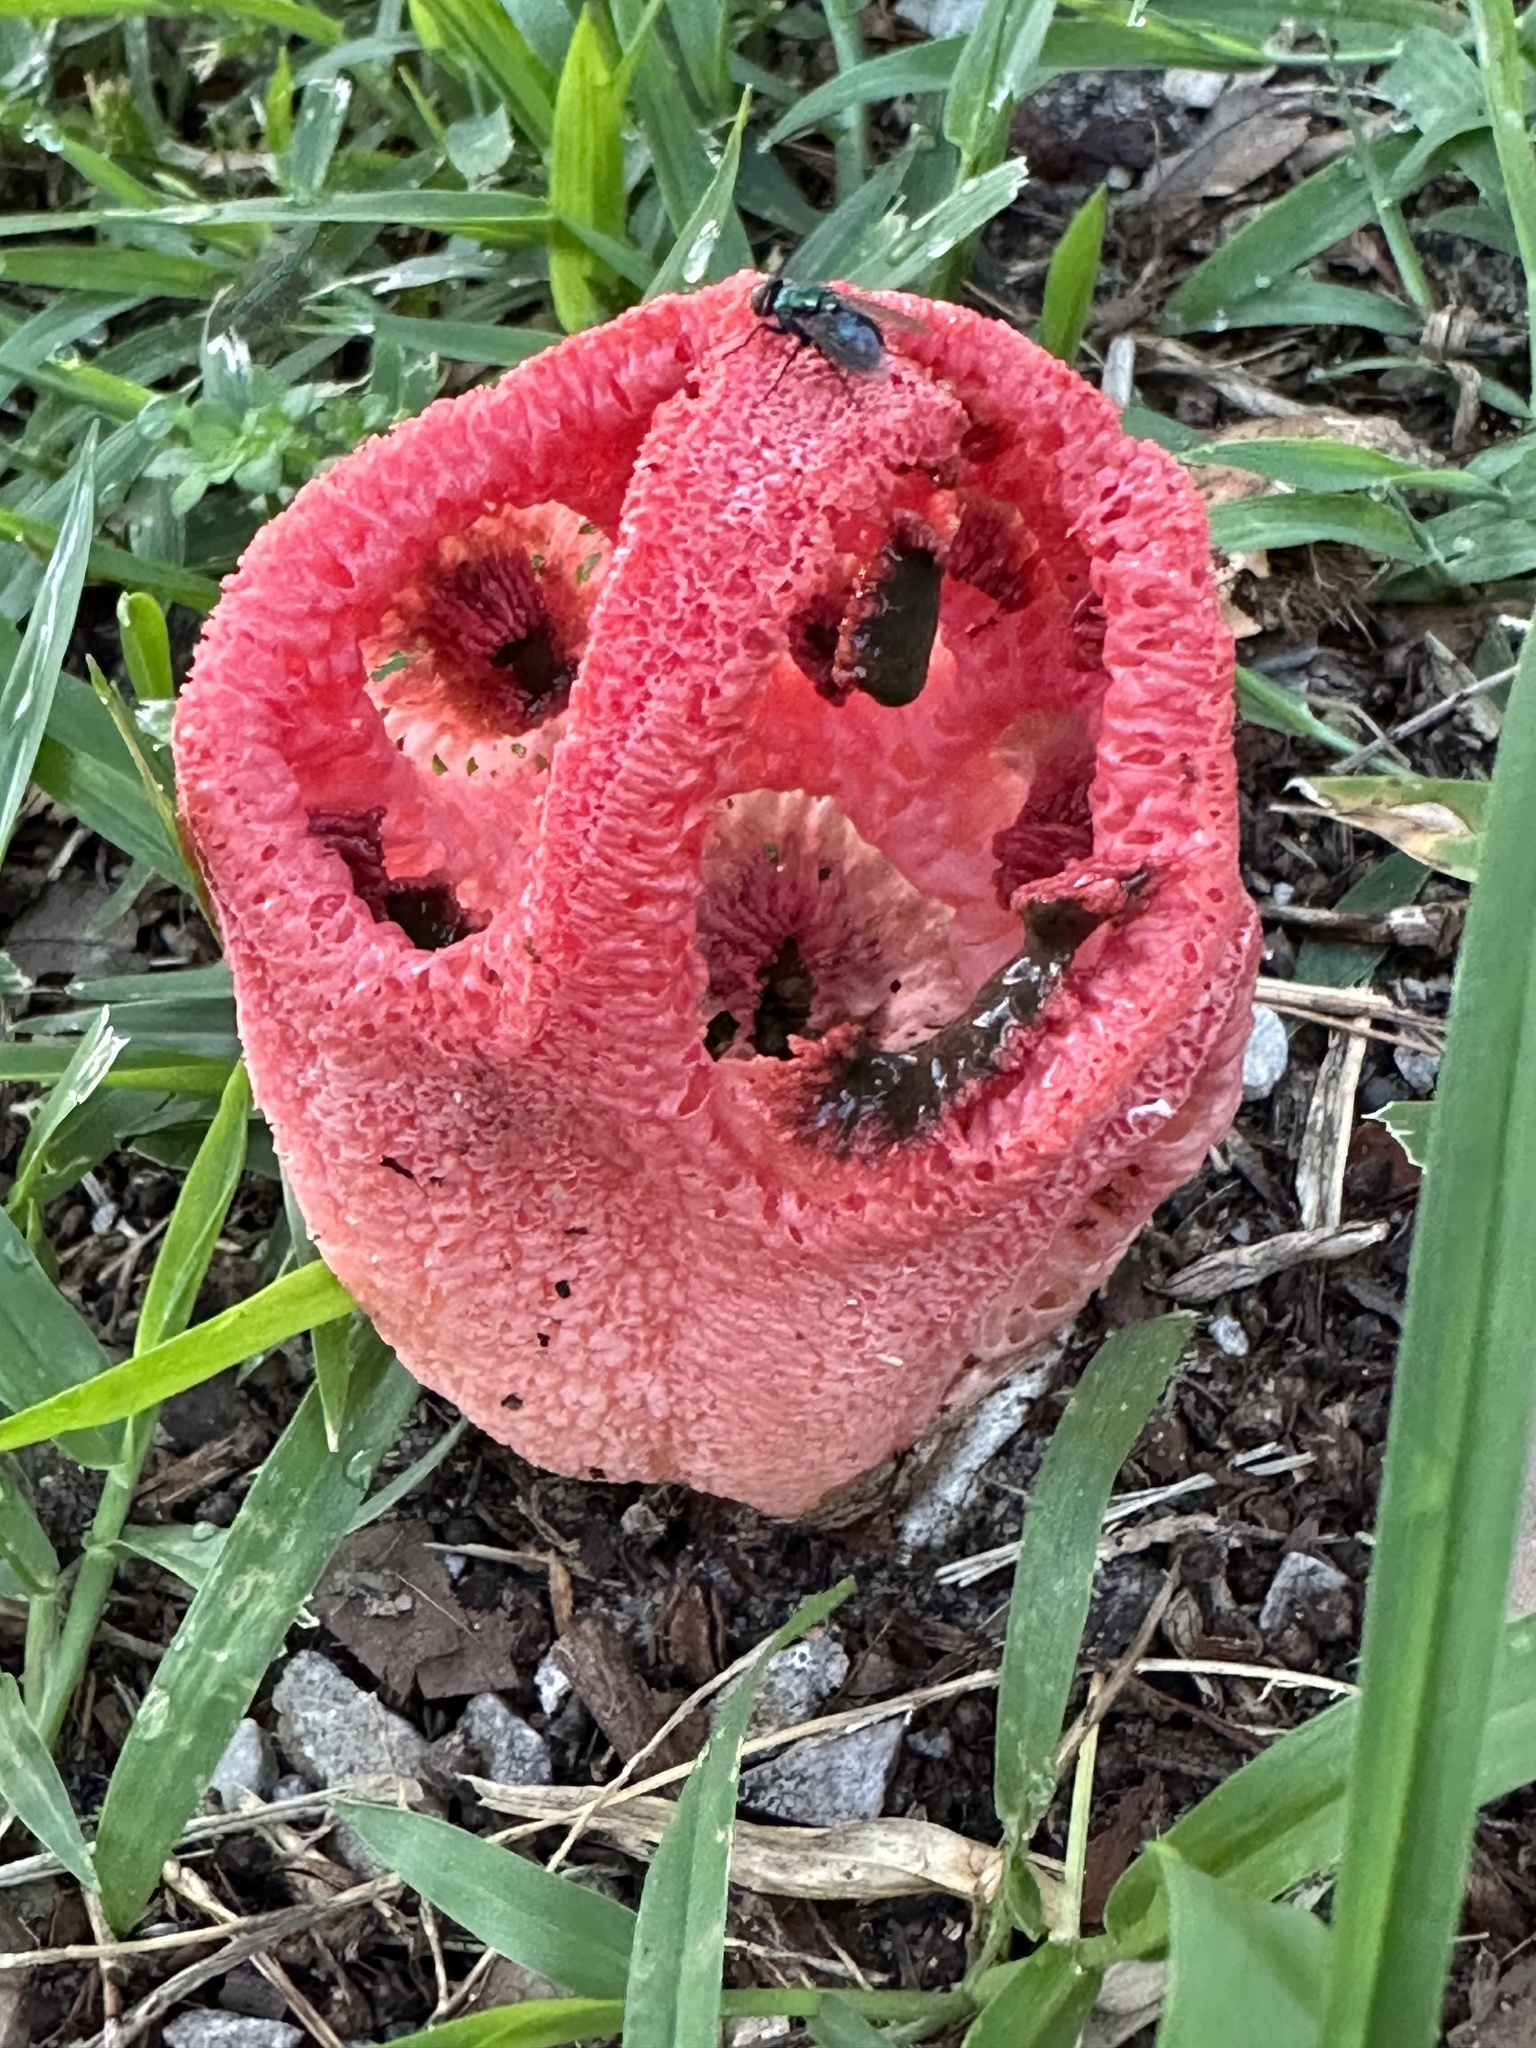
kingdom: Fungi
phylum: Basidiomycota
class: Agaricomycetes
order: Phallales
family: Phallaceae
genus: Clathrus
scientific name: Clathrus crispatus
